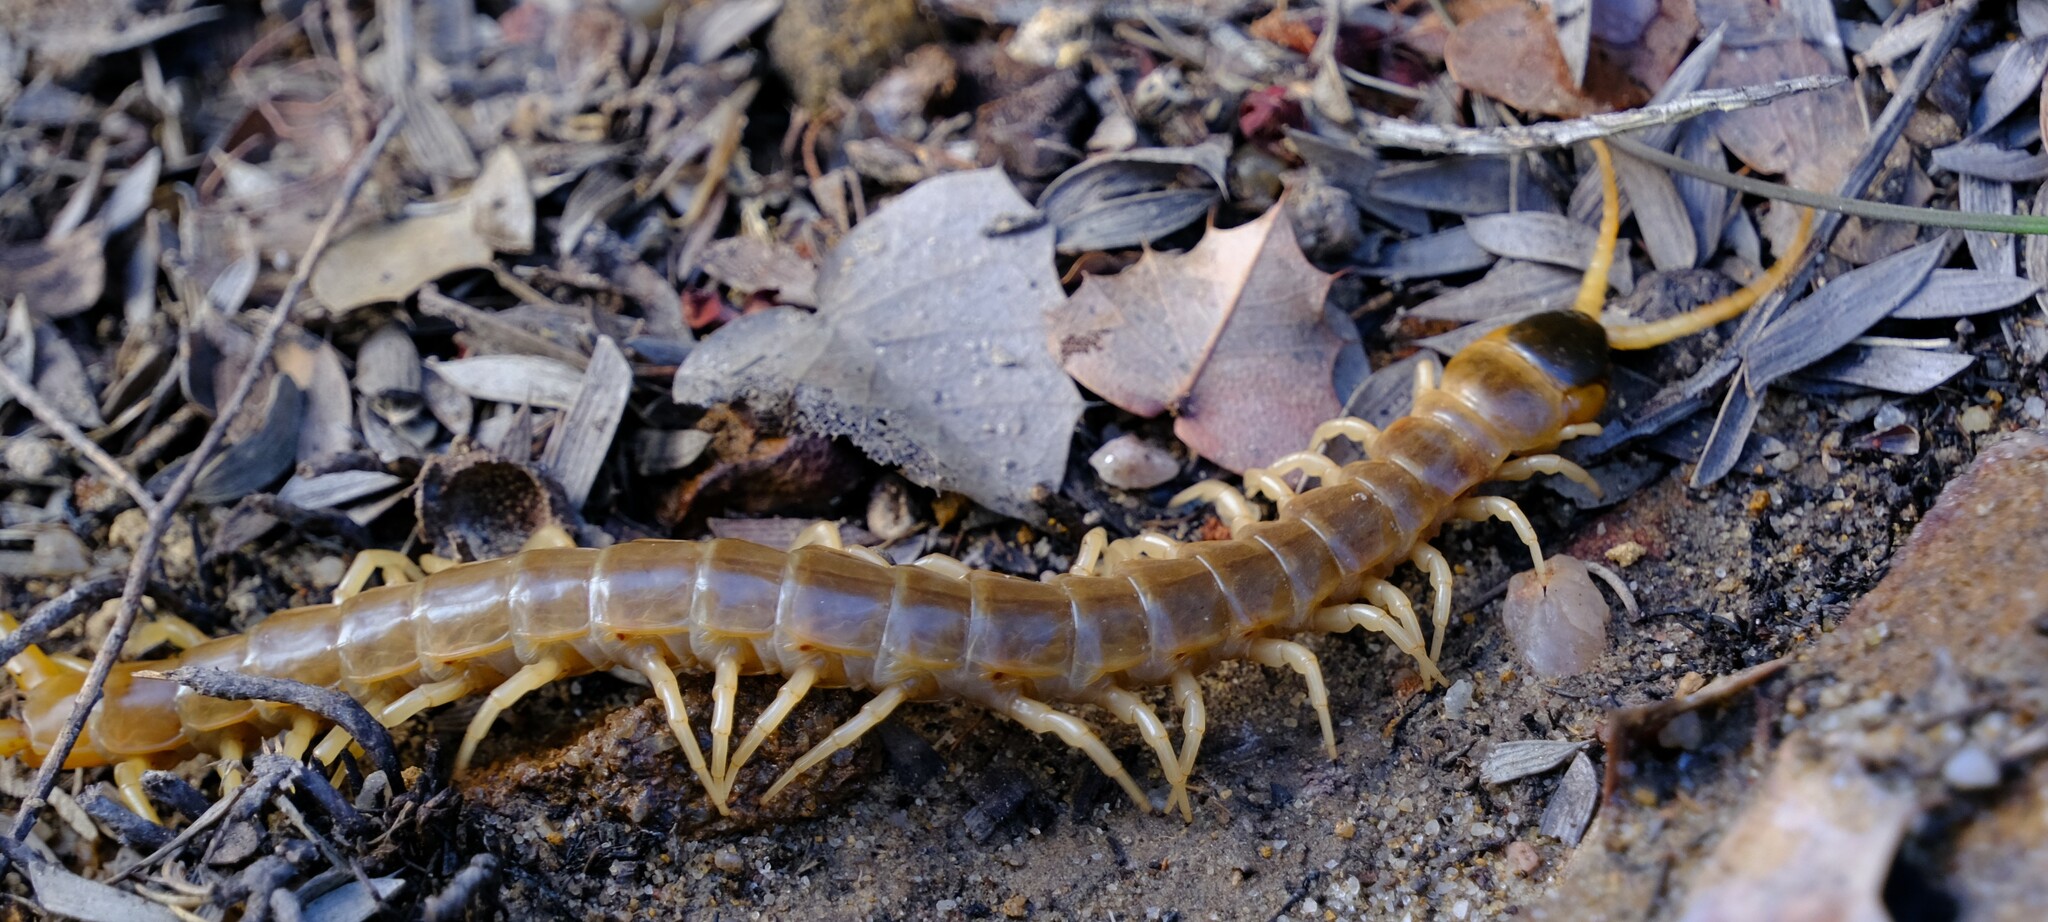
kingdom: Animalia
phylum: Arthropoda
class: Chilopoda
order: Scolopendromorpha
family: Scolopendridae
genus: Ethmostigmus
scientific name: Ethmostigmus rubripes
